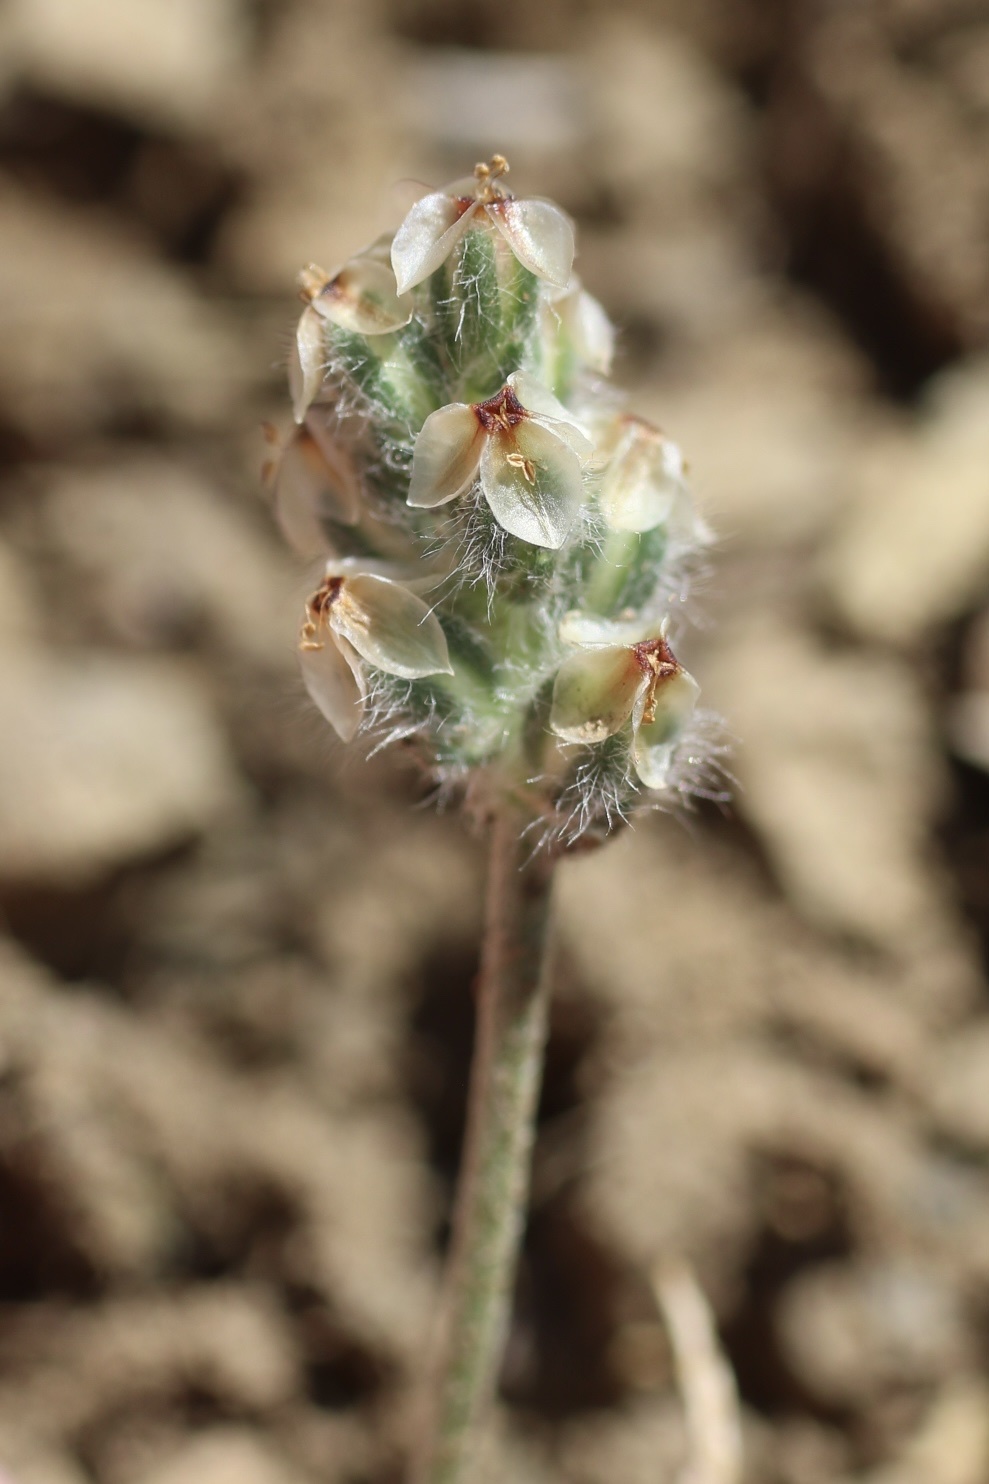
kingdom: Plantae
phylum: Tracheophyta
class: Magnoliopsida
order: Lamiales
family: Plantaginaceae
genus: Plantago
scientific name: Plantago erecta
